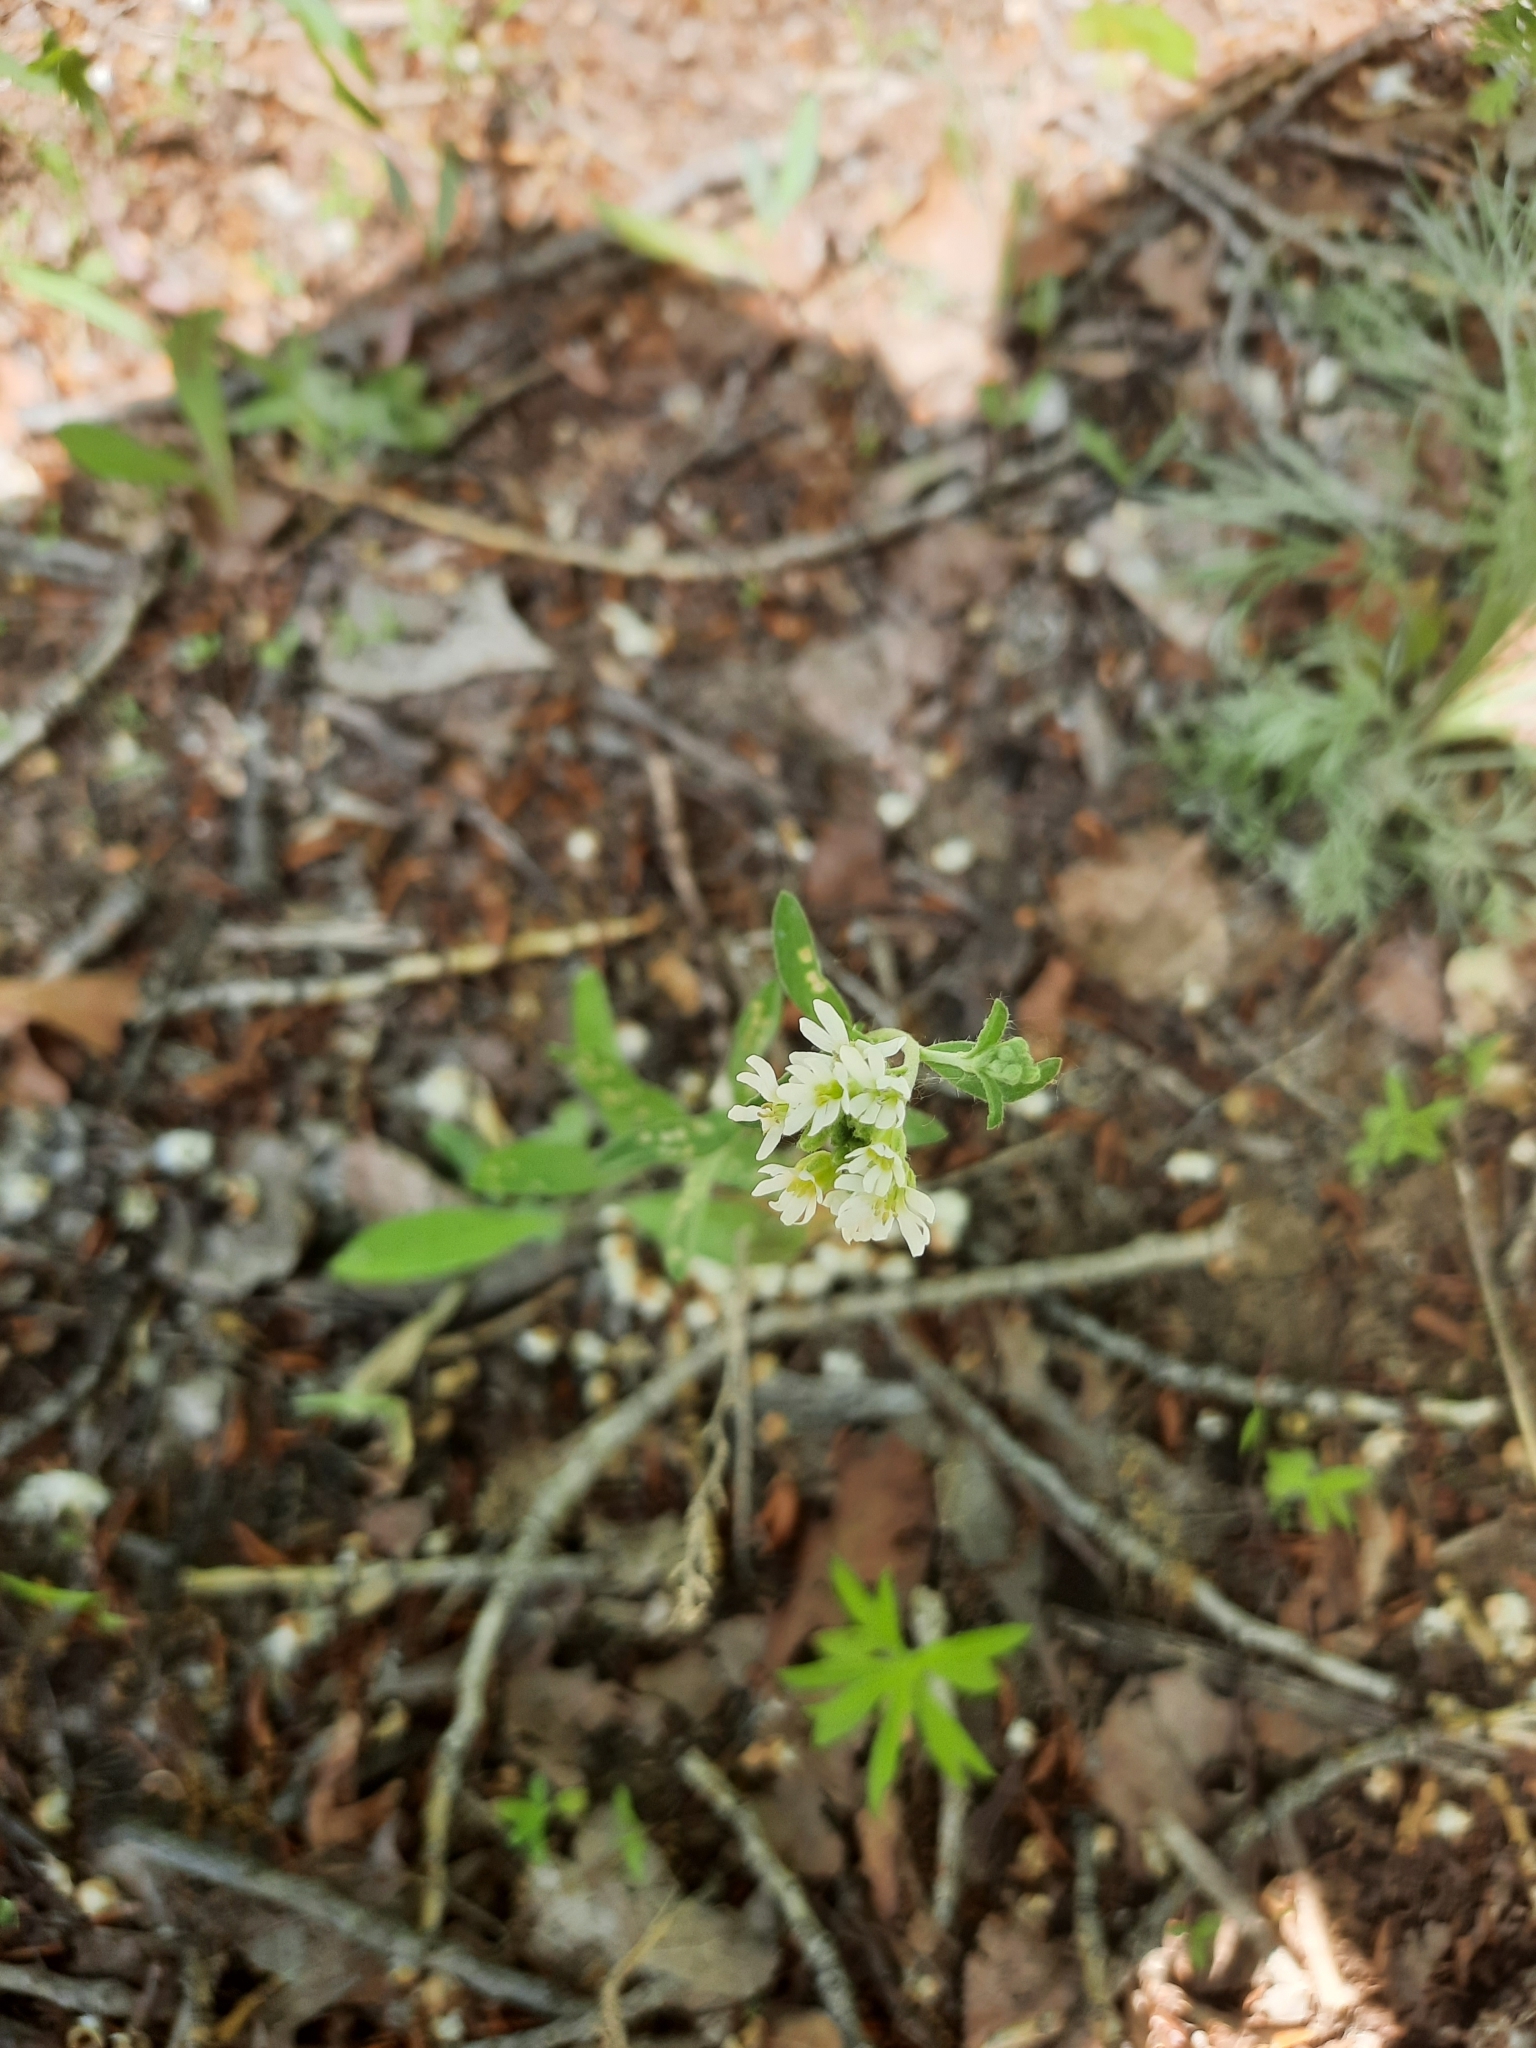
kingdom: Plantae
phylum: Tracheophyta
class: Magnoliopsida
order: Brassicales
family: Brassicaceae
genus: Berteroa
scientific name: Berteroa incana
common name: Hoary alison
